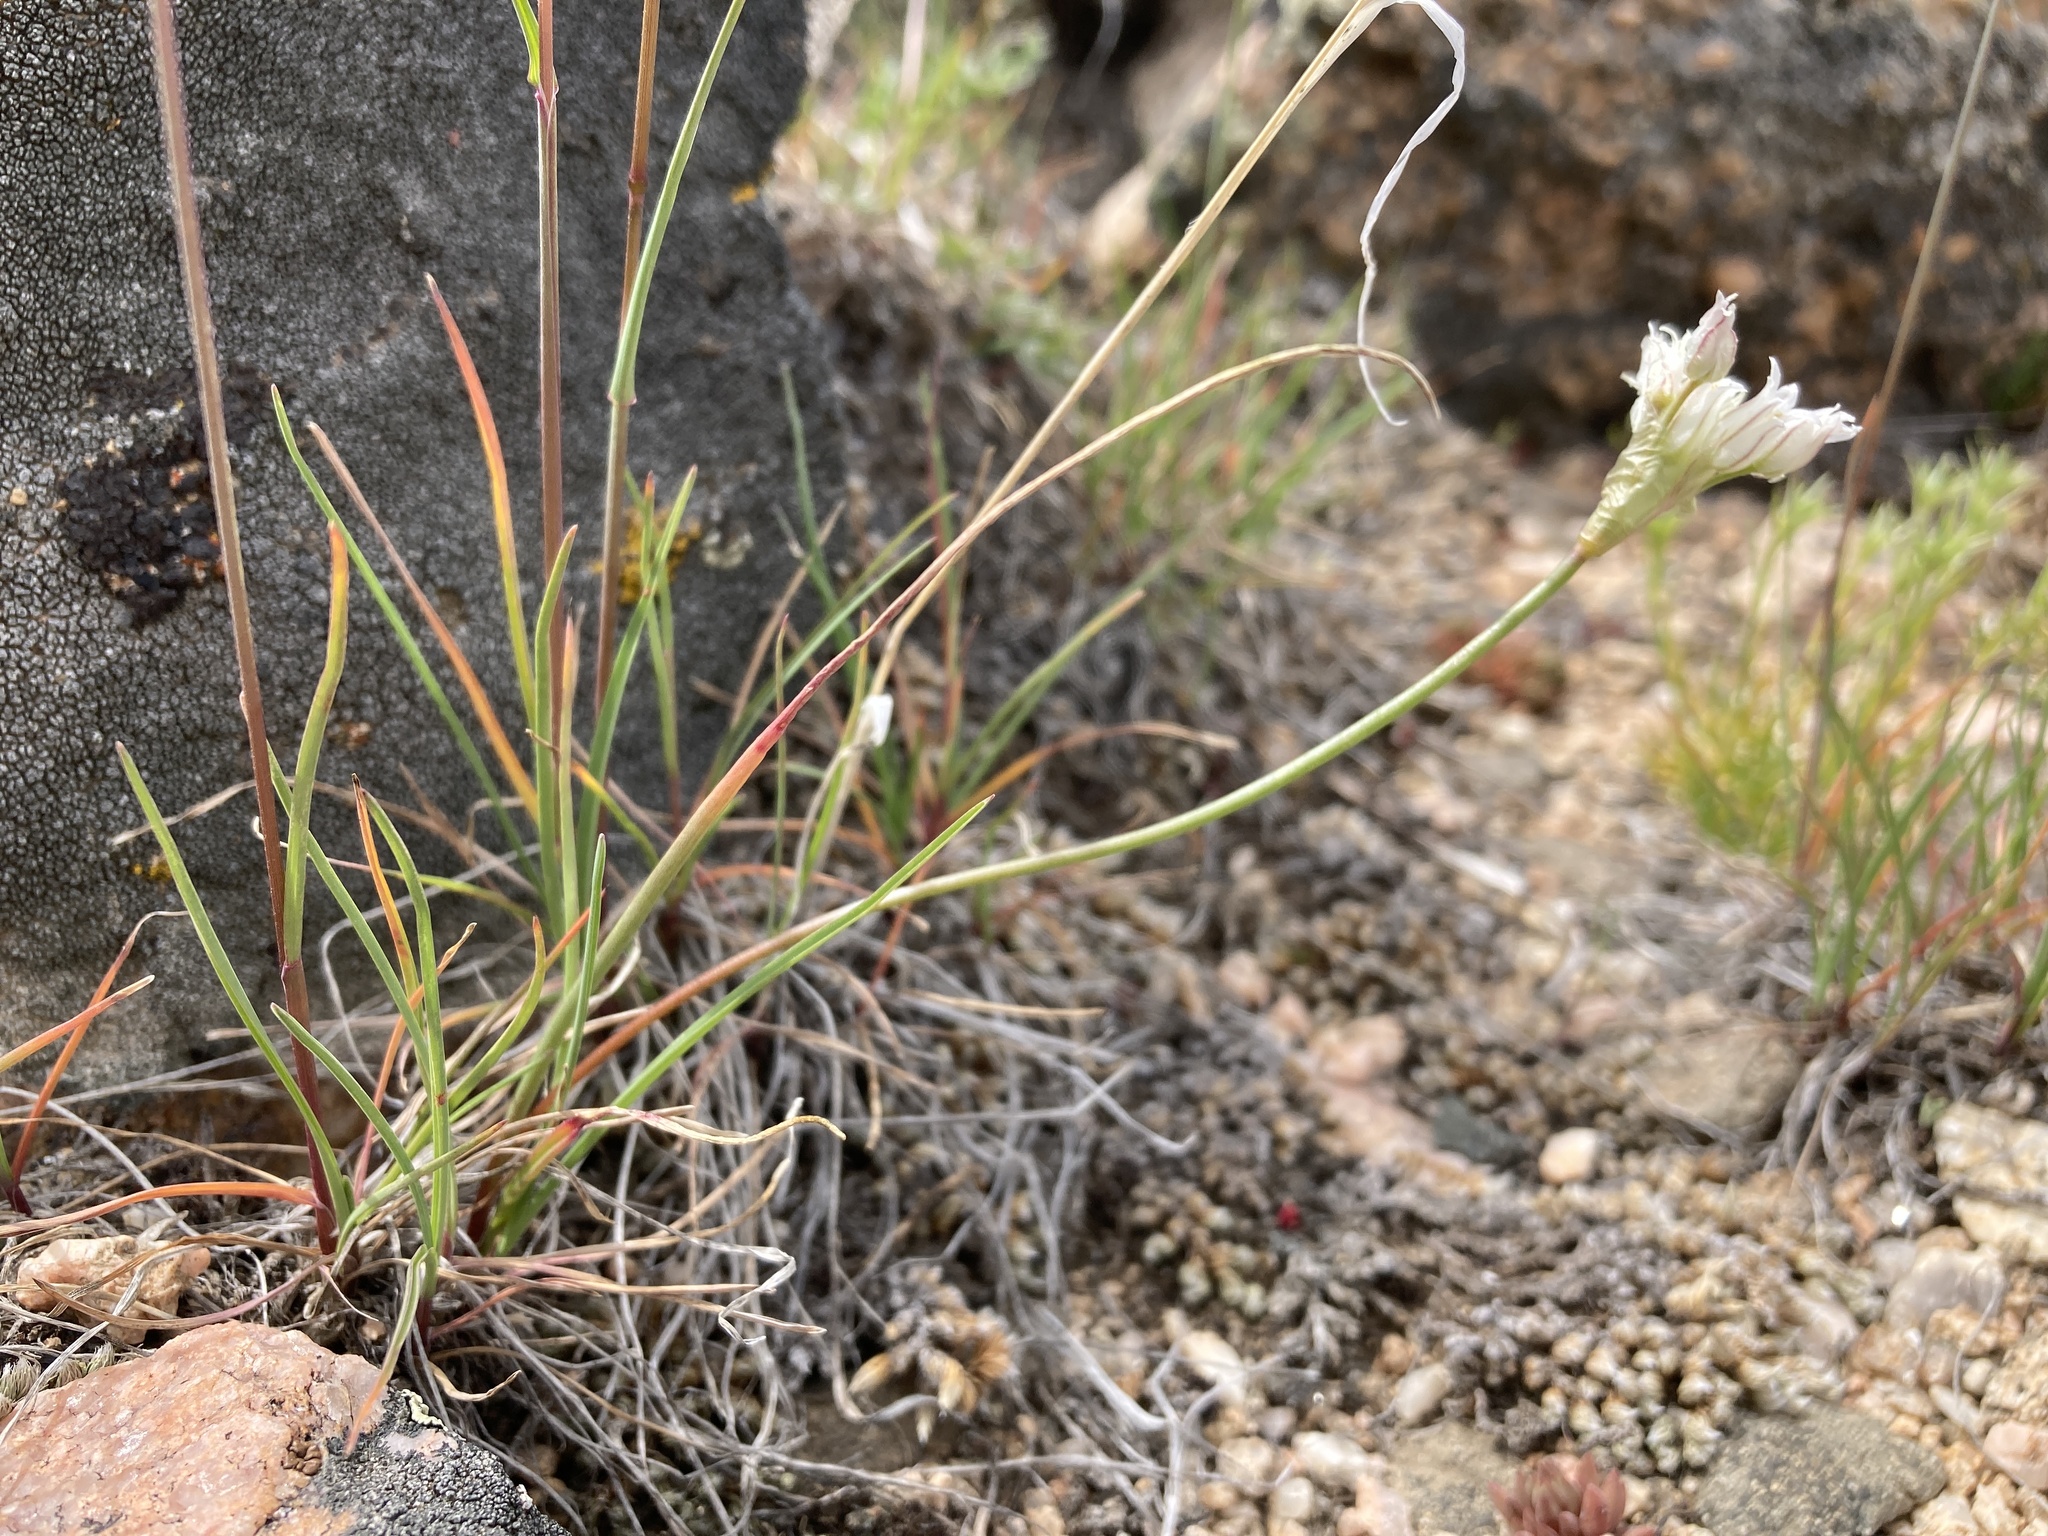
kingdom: Plantae
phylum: Tracheophyta
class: Liliopsida
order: Asparagales
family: Amaryllidaceae
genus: Allium
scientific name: Allium textile
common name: Prairie onion
